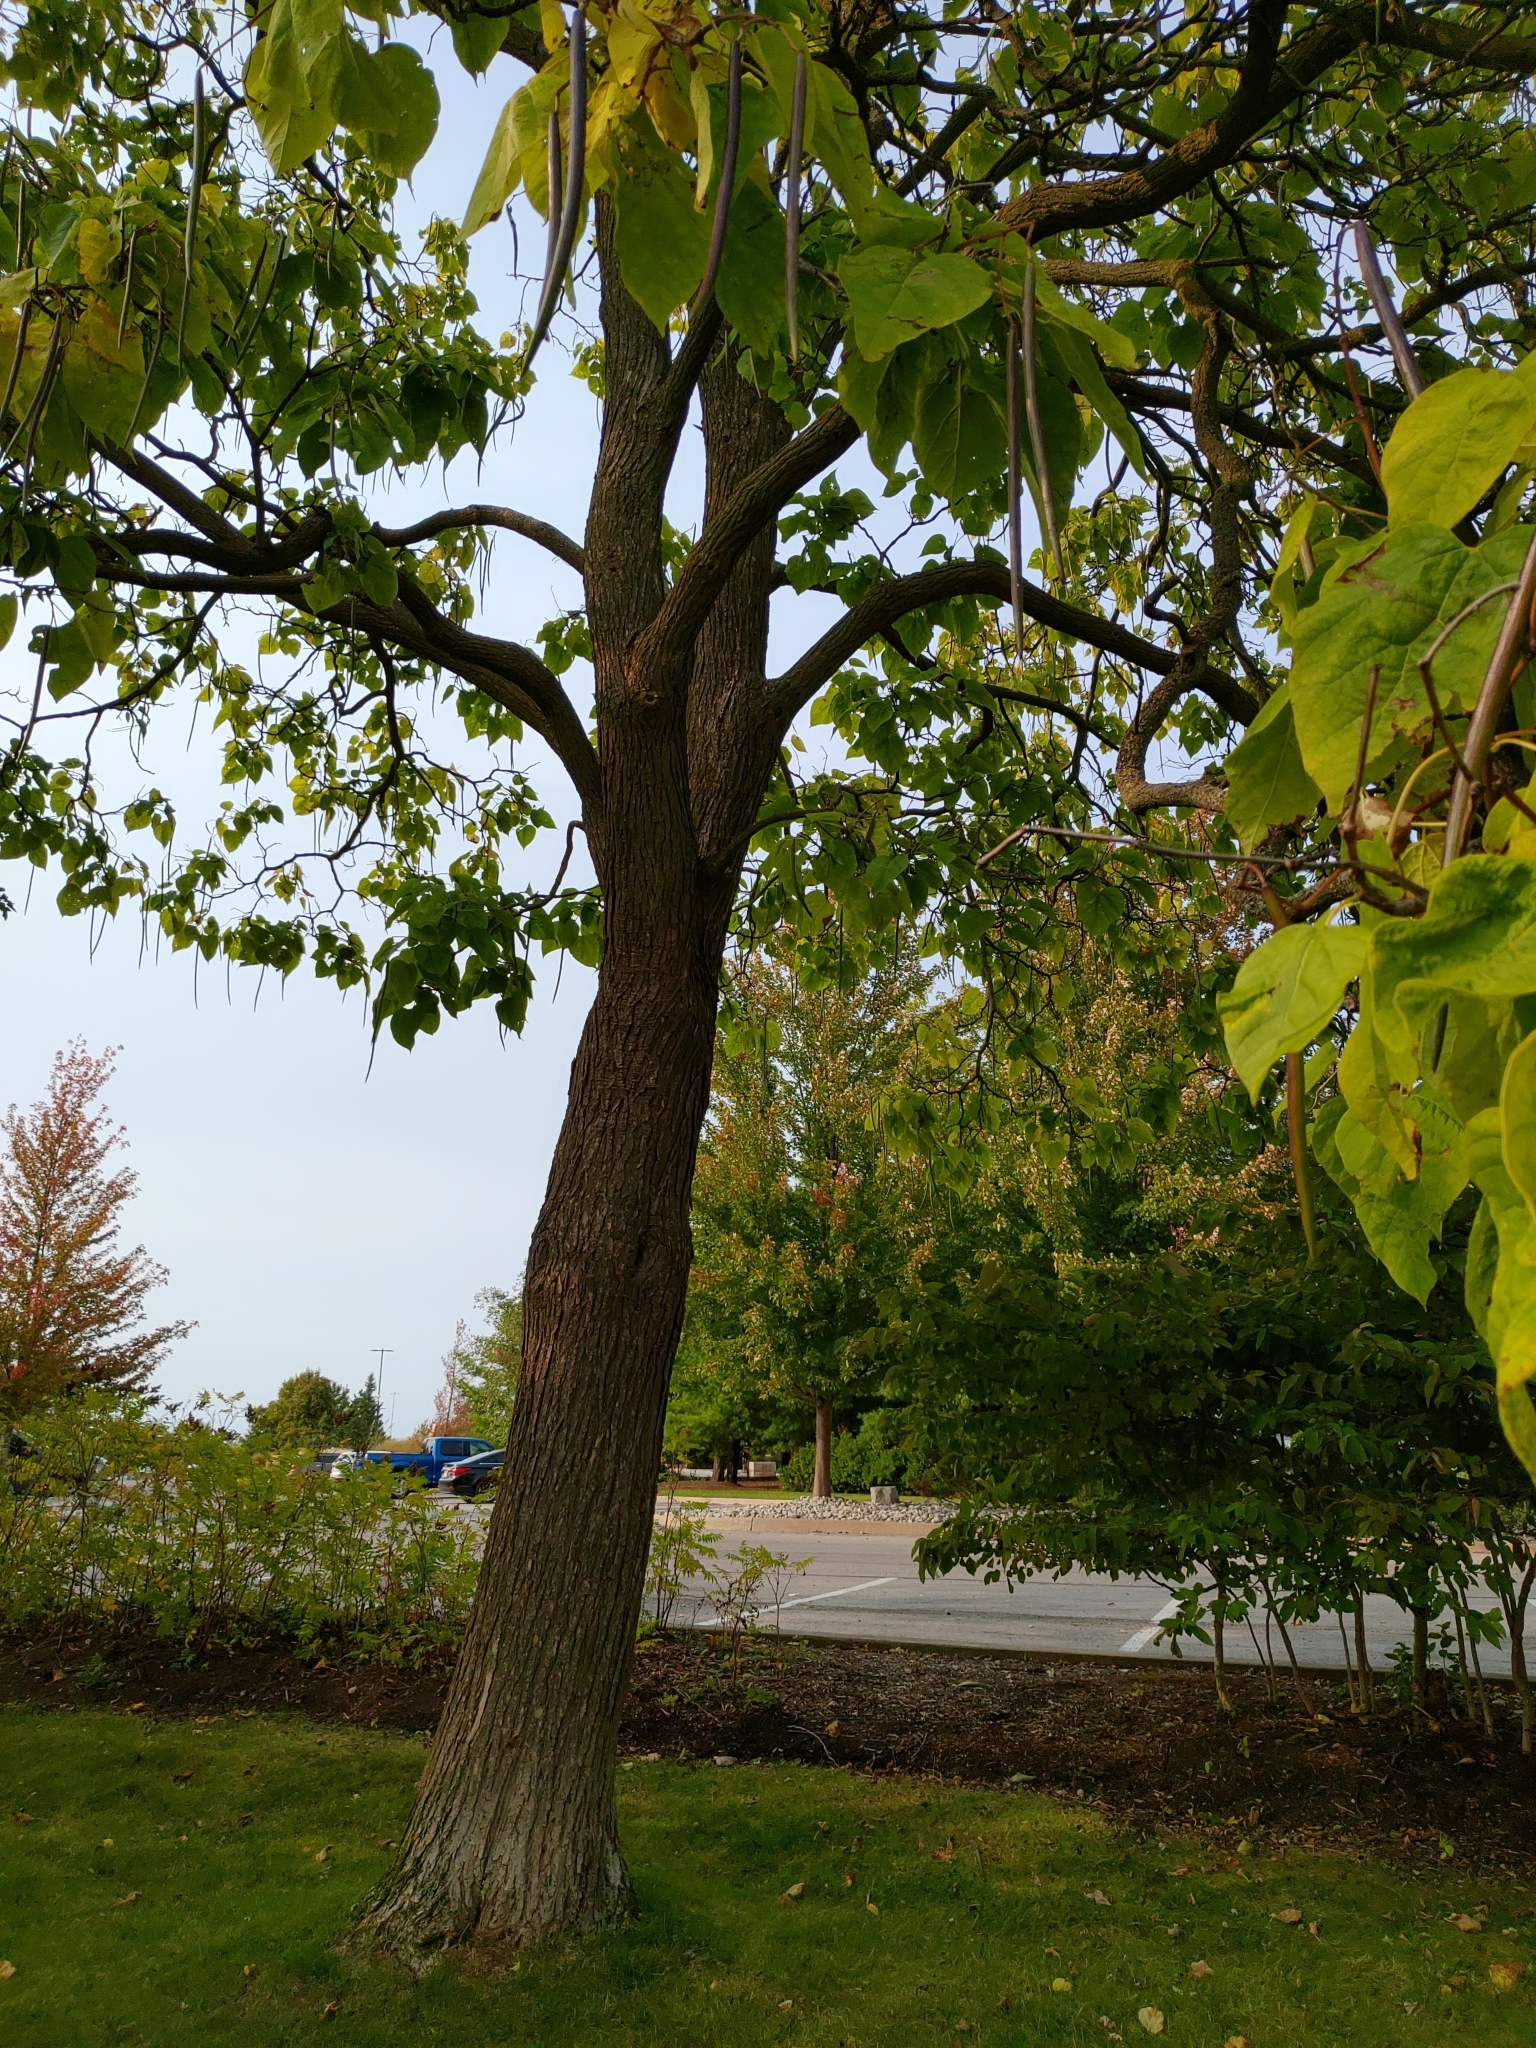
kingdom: Plantae
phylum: Tracheophyta
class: Magnoliopsida
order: Lamiales
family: Bignoniaceae
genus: Catalpa
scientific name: Catalpa speciosa
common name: Northern catalpa
